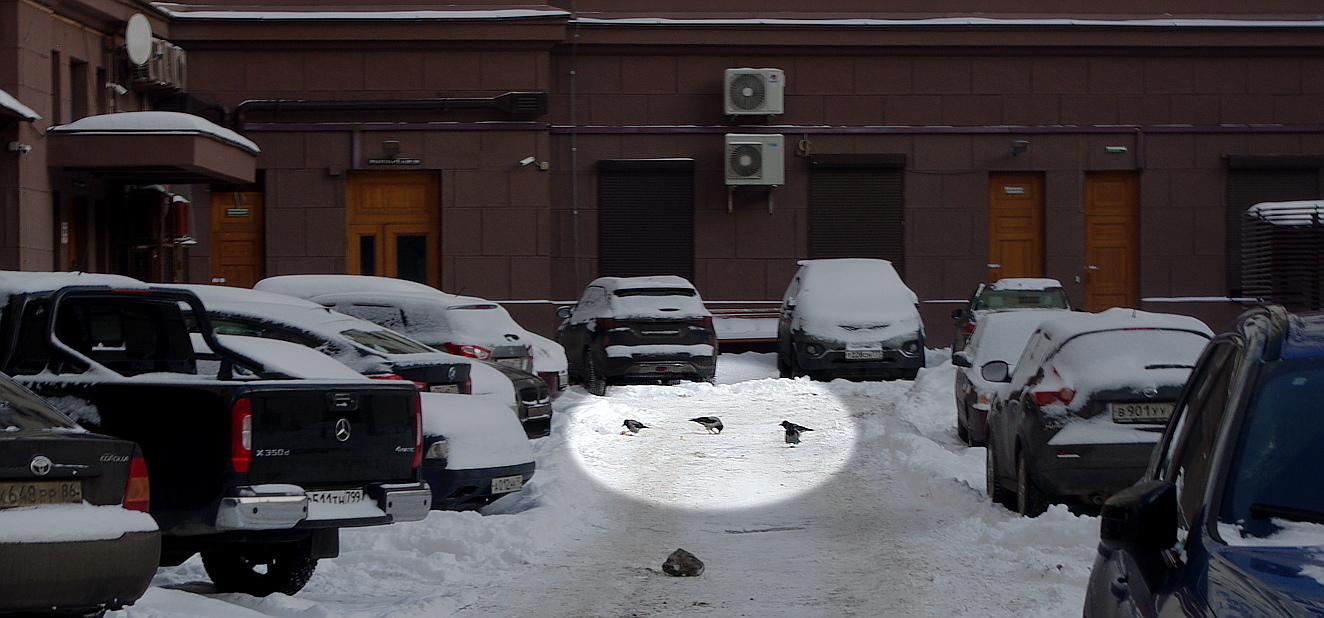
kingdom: Animalia
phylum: Chordata
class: Aves
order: Passeriformes
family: Corvidae
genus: Corvus
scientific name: Corvus cornix
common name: Hooded crow
